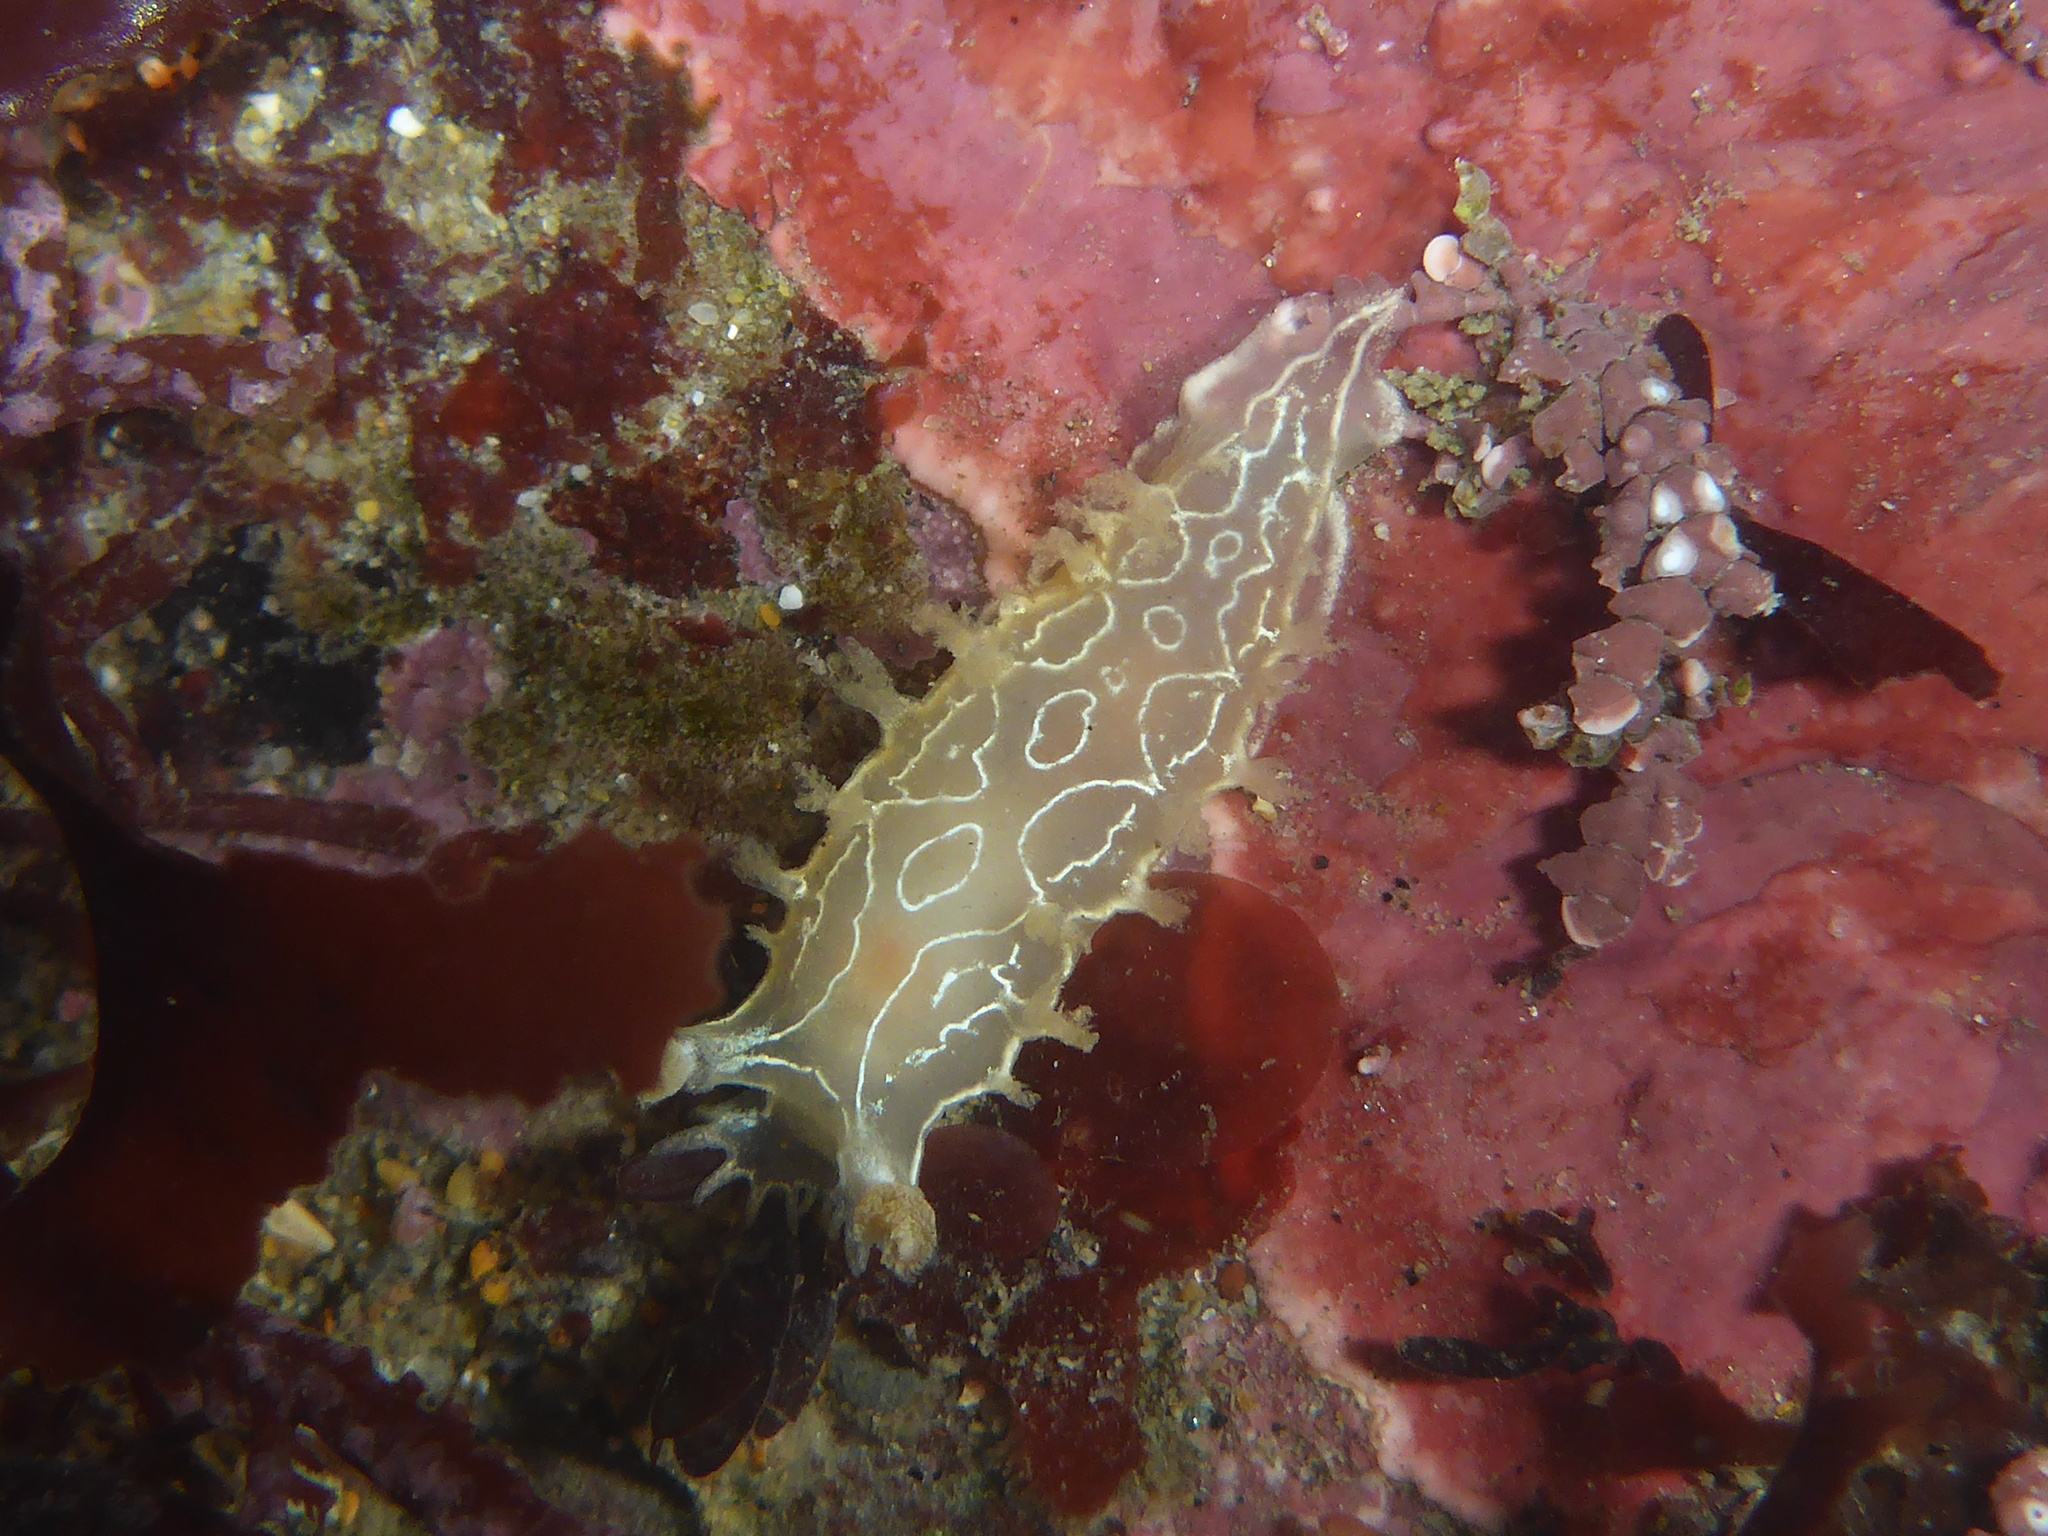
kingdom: Animalia
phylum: Mollusca
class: Gastropoda
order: Nudibranchia
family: Tritoniidae
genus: Tritonia
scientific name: Tritonia festiva
